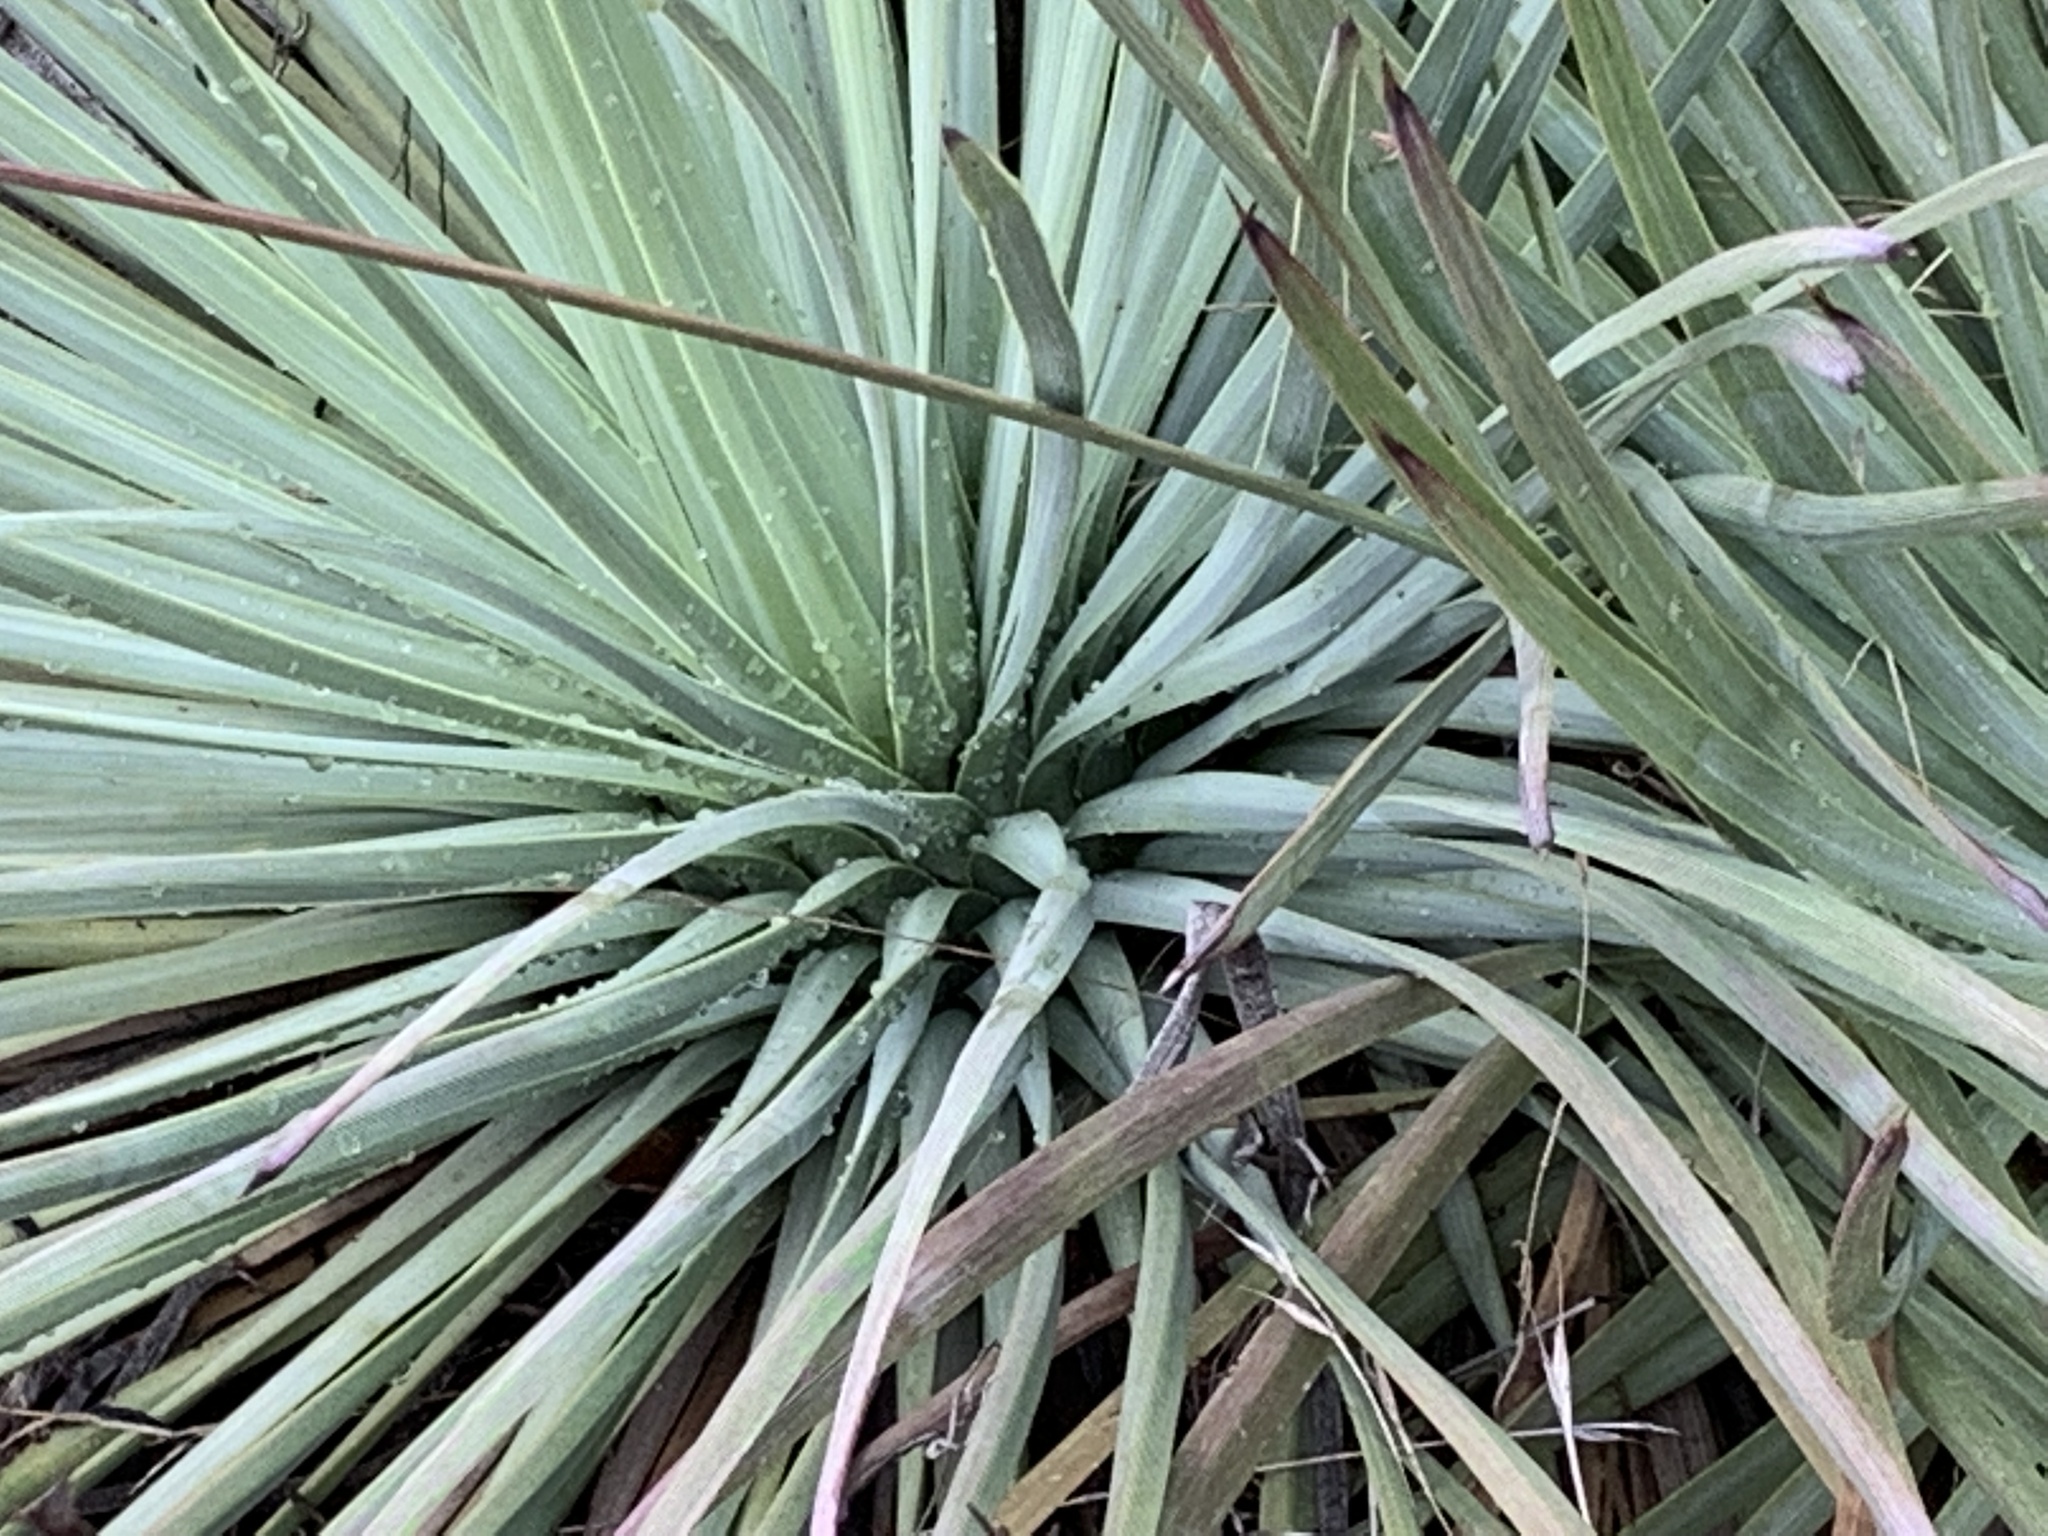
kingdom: Plantae
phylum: Tracheophyta
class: Liliopsida
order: Asparagales
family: Asparagaceae
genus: Hesperoyucca
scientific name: Hesperoyucca whipplei
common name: Our lord's-candle
